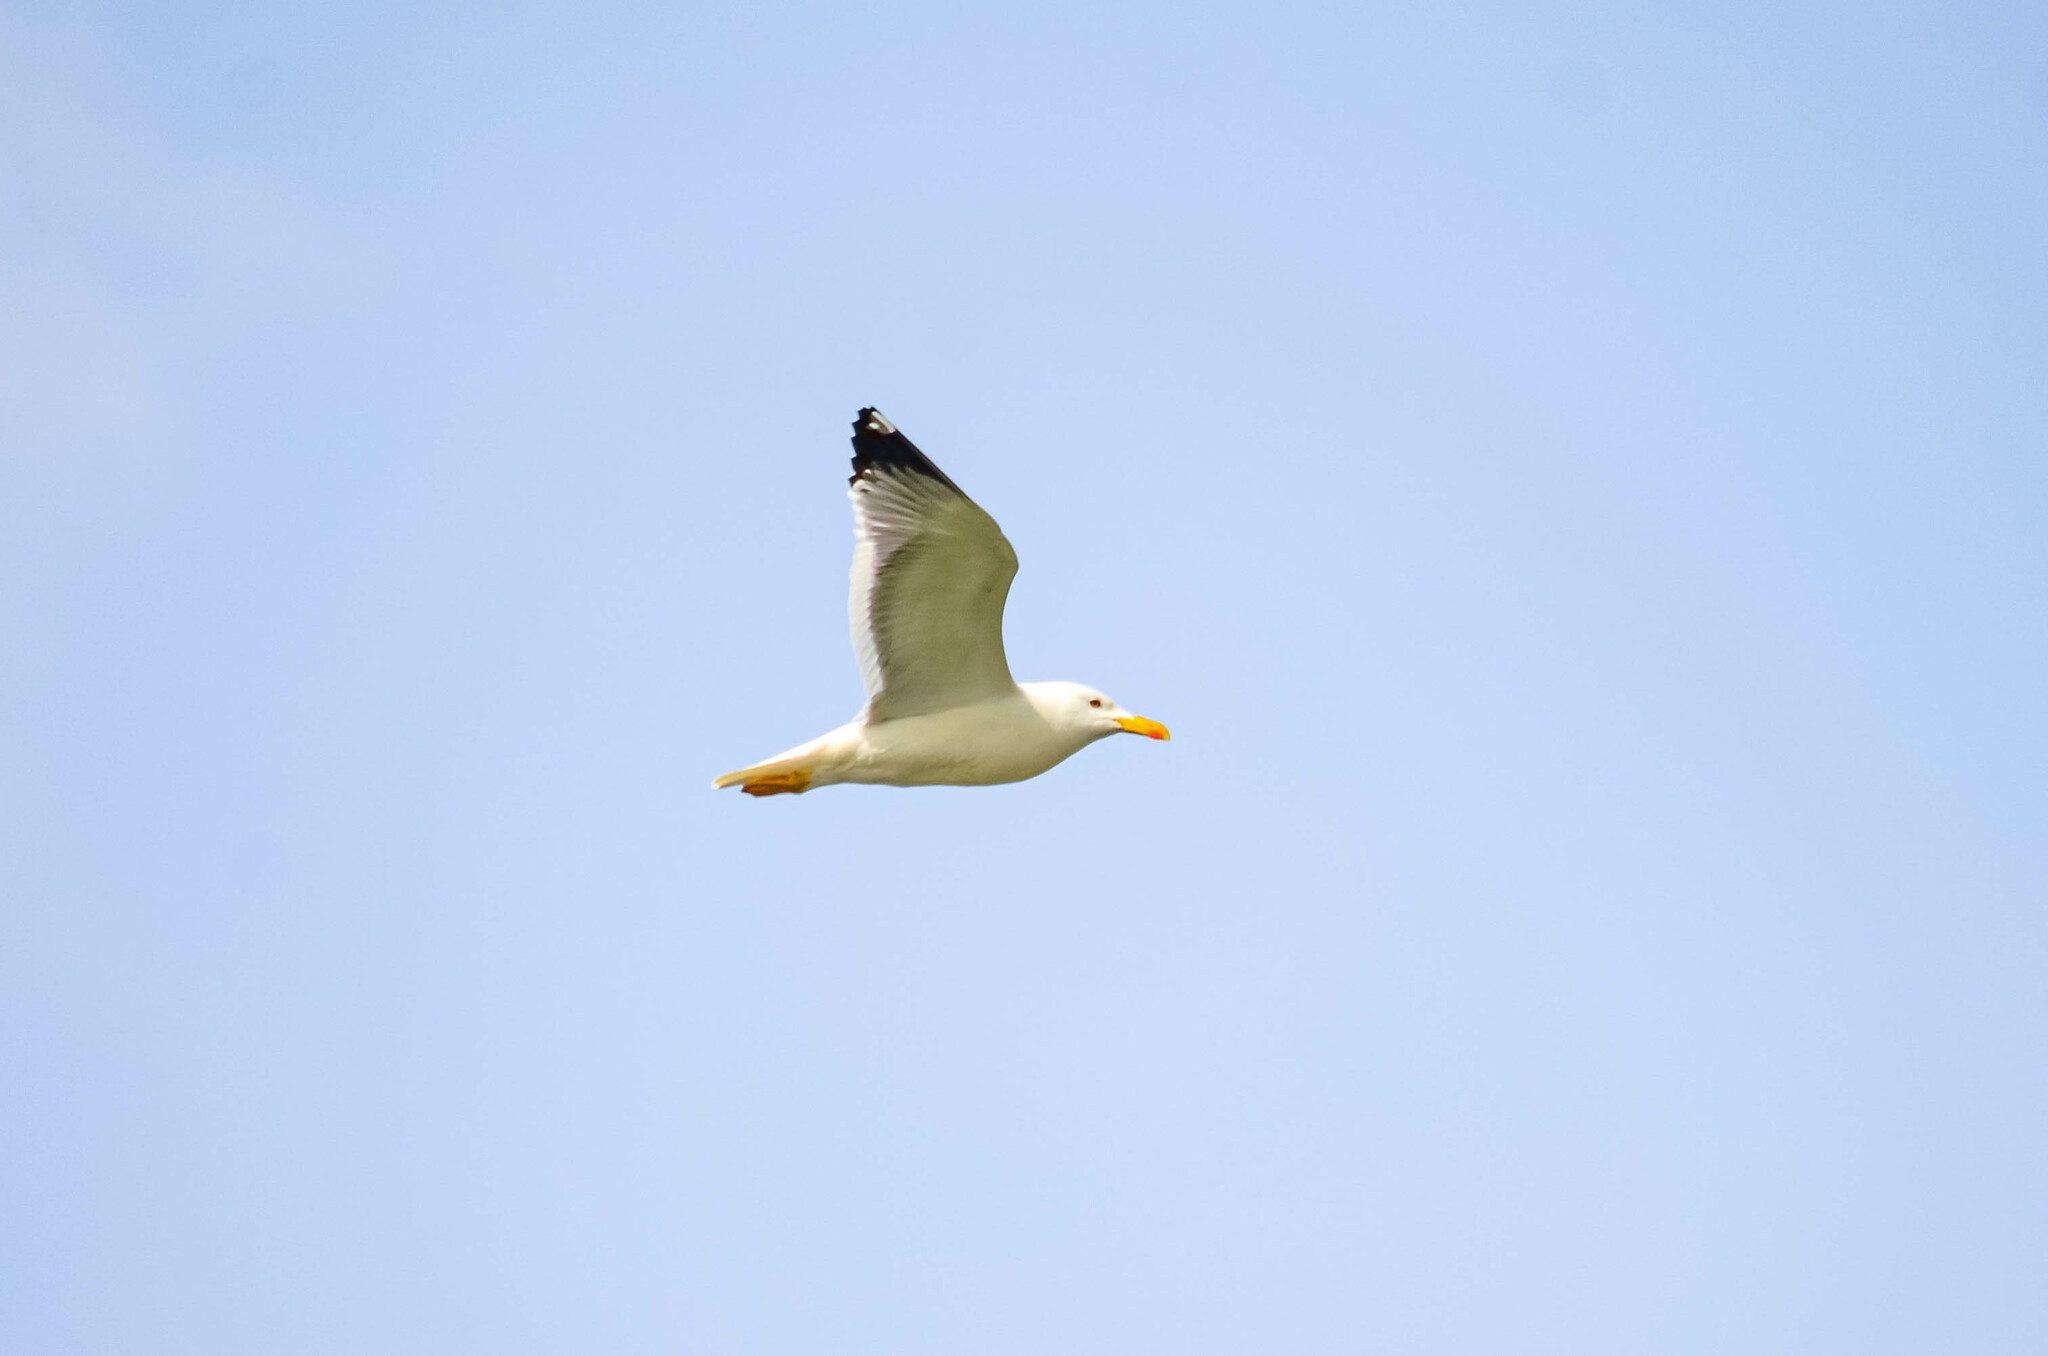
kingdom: Animalia
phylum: Chordata
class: Aves
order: Charadriiformes
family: Laridae
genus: Larus
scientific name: Larus fuscus
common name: Lesser black-backed gull
